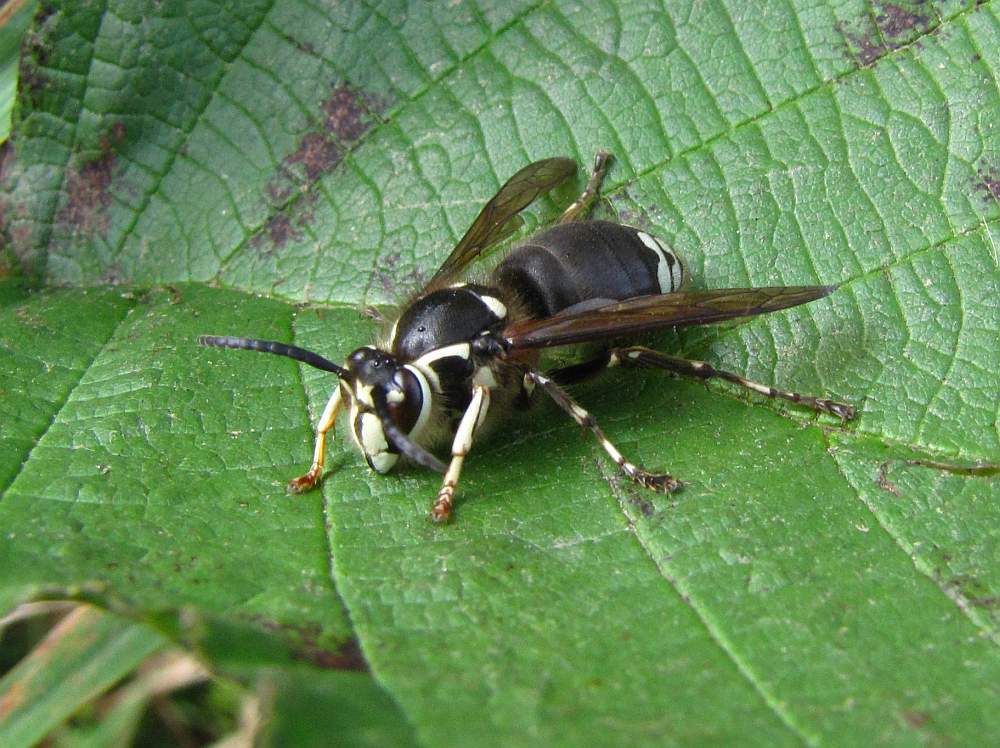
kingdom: Animalia
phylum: Arthropoda
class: Insecta
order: Hymenoptera
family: Vespidae
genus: Dolichovespula
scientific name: Dolichovespula maculata
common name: Bald-faced hornet
